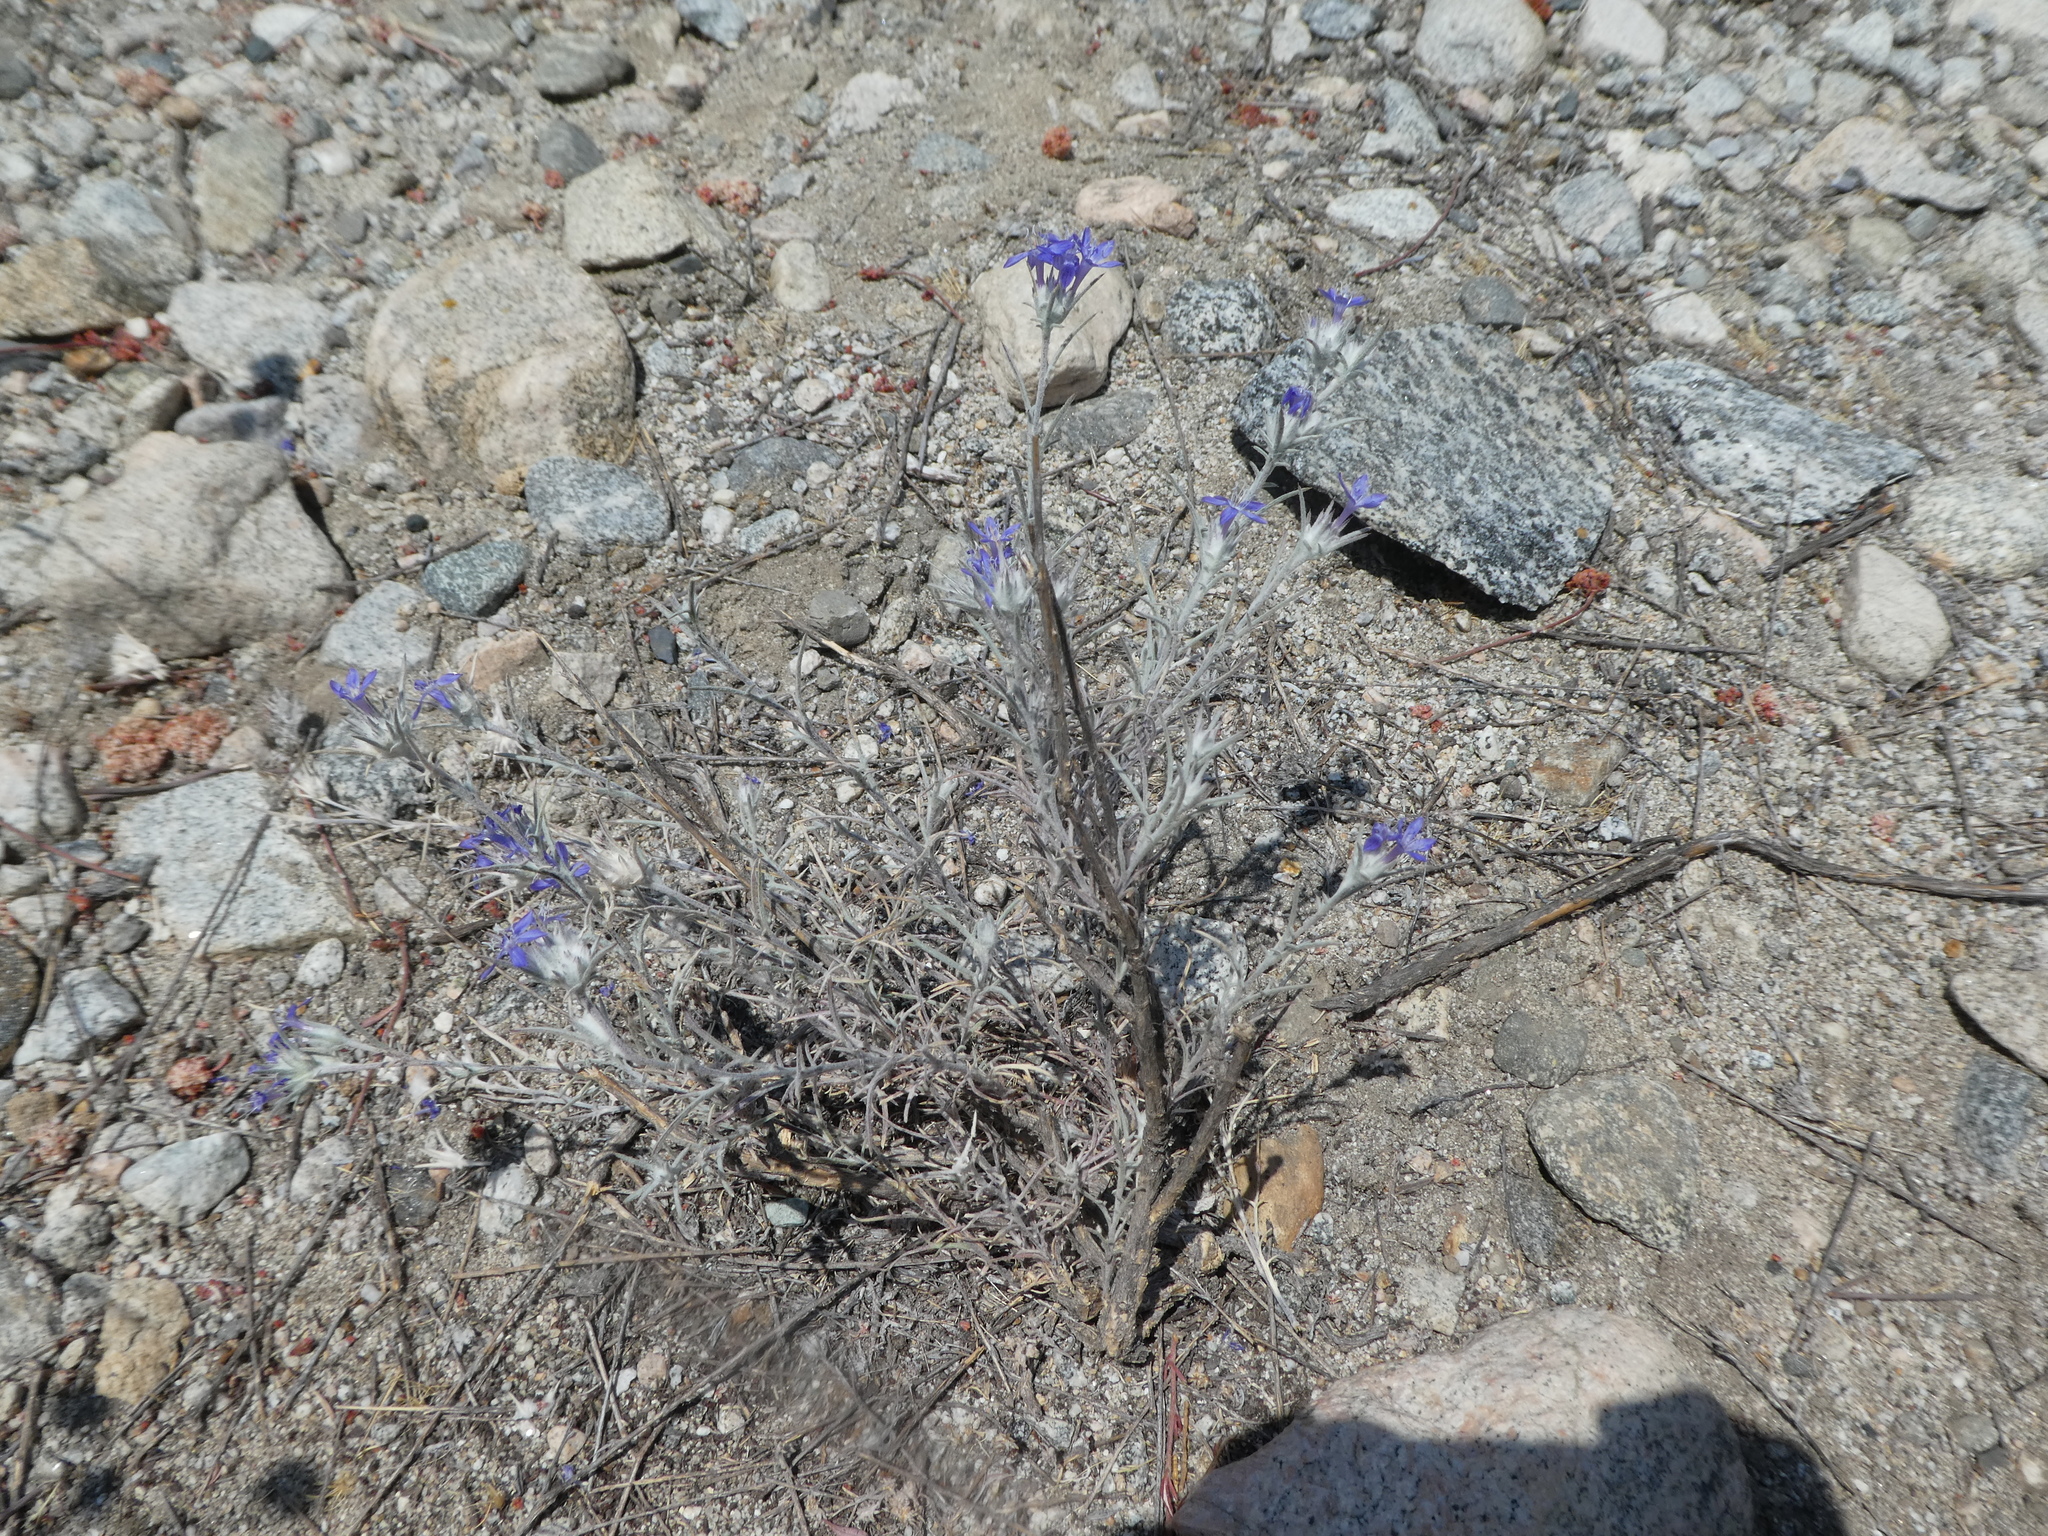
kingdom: Plantae
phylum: Tracheophyta
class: Magnoliopsida
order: Ericales
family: Polemoniaceae
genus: Eriastrum
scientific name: Eriastrum densifolium
